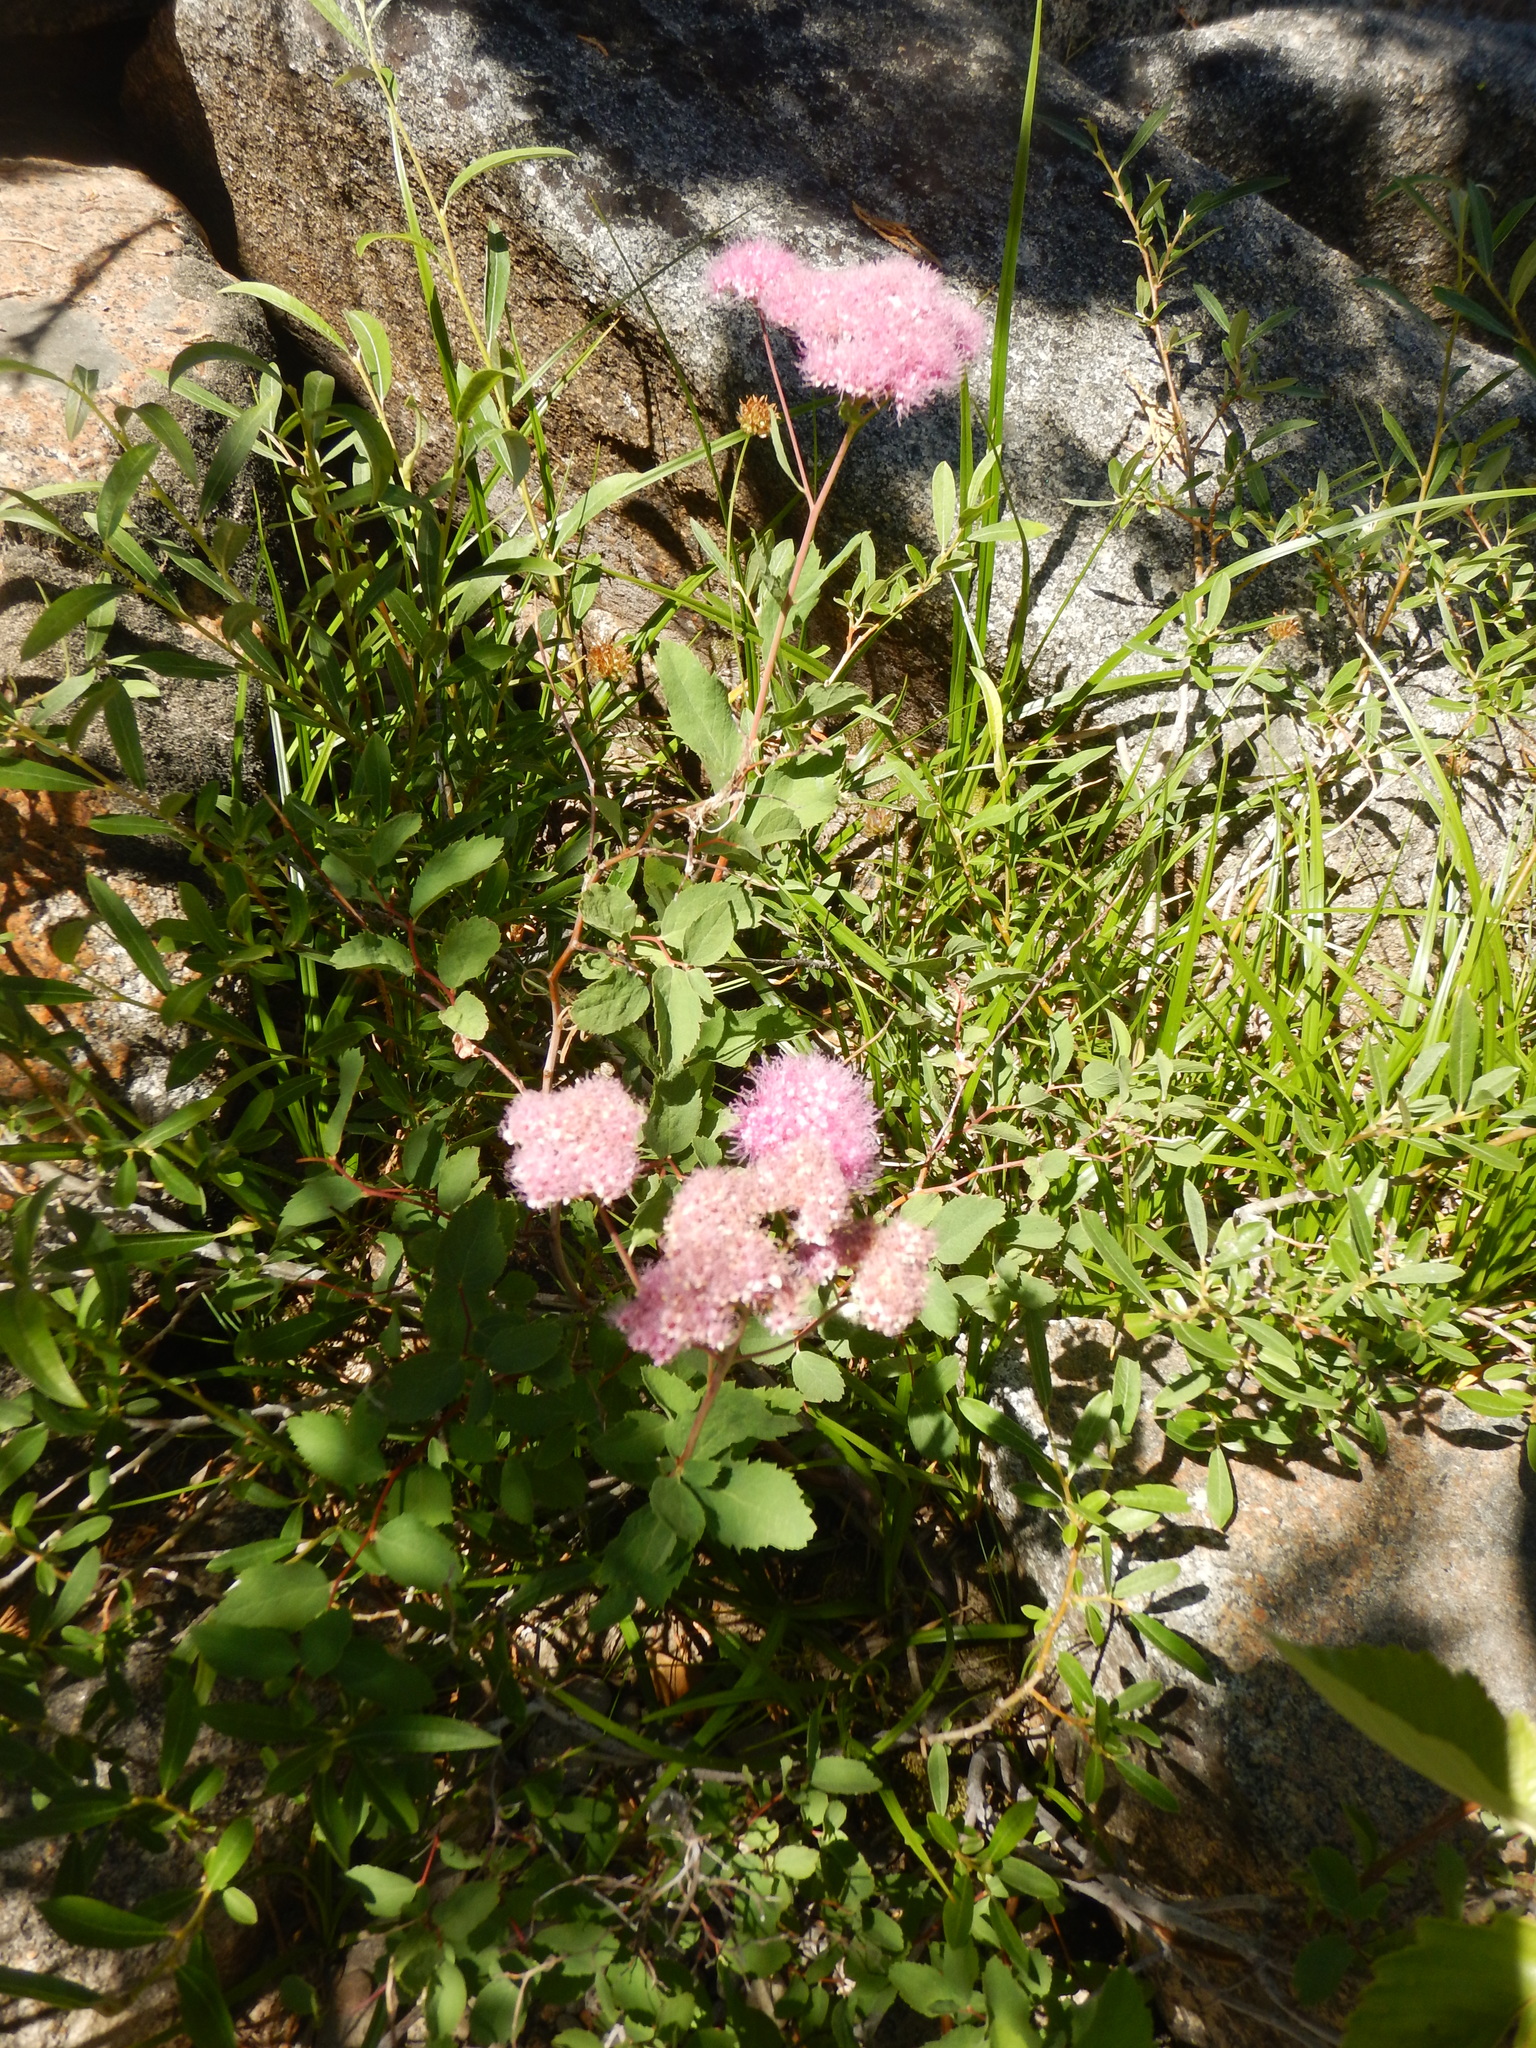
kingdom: Plantae
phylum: Tracheophyta
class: Magnoliopsida
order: Rosales
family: Rosaceae
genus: Spiraea
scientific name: Spiraea splendens
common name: Subalpine meadowsweet
